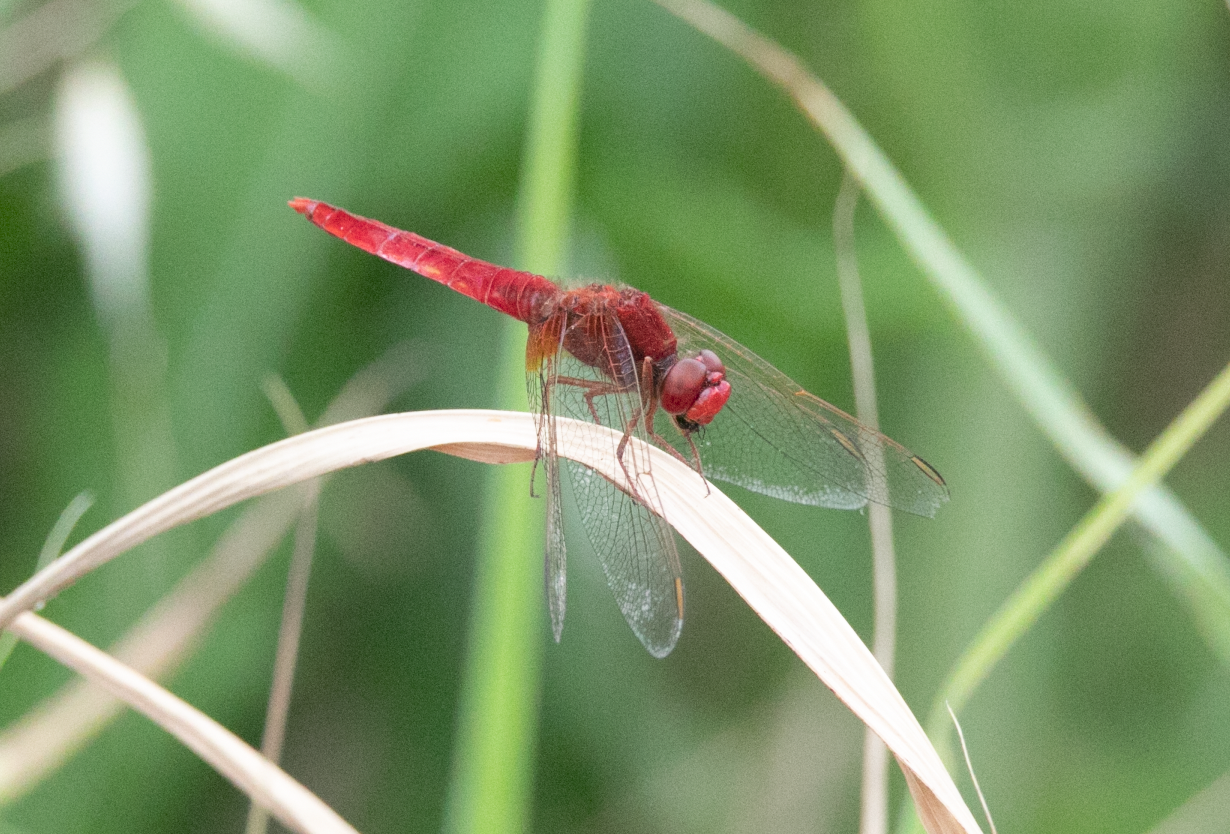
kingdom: Animalia
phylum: Arthropoda
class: Insecta
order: Odonata
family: Libellulidae
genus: Crocothemis
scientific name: Crocothemis erythraea
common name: Scarlet dragonfly
